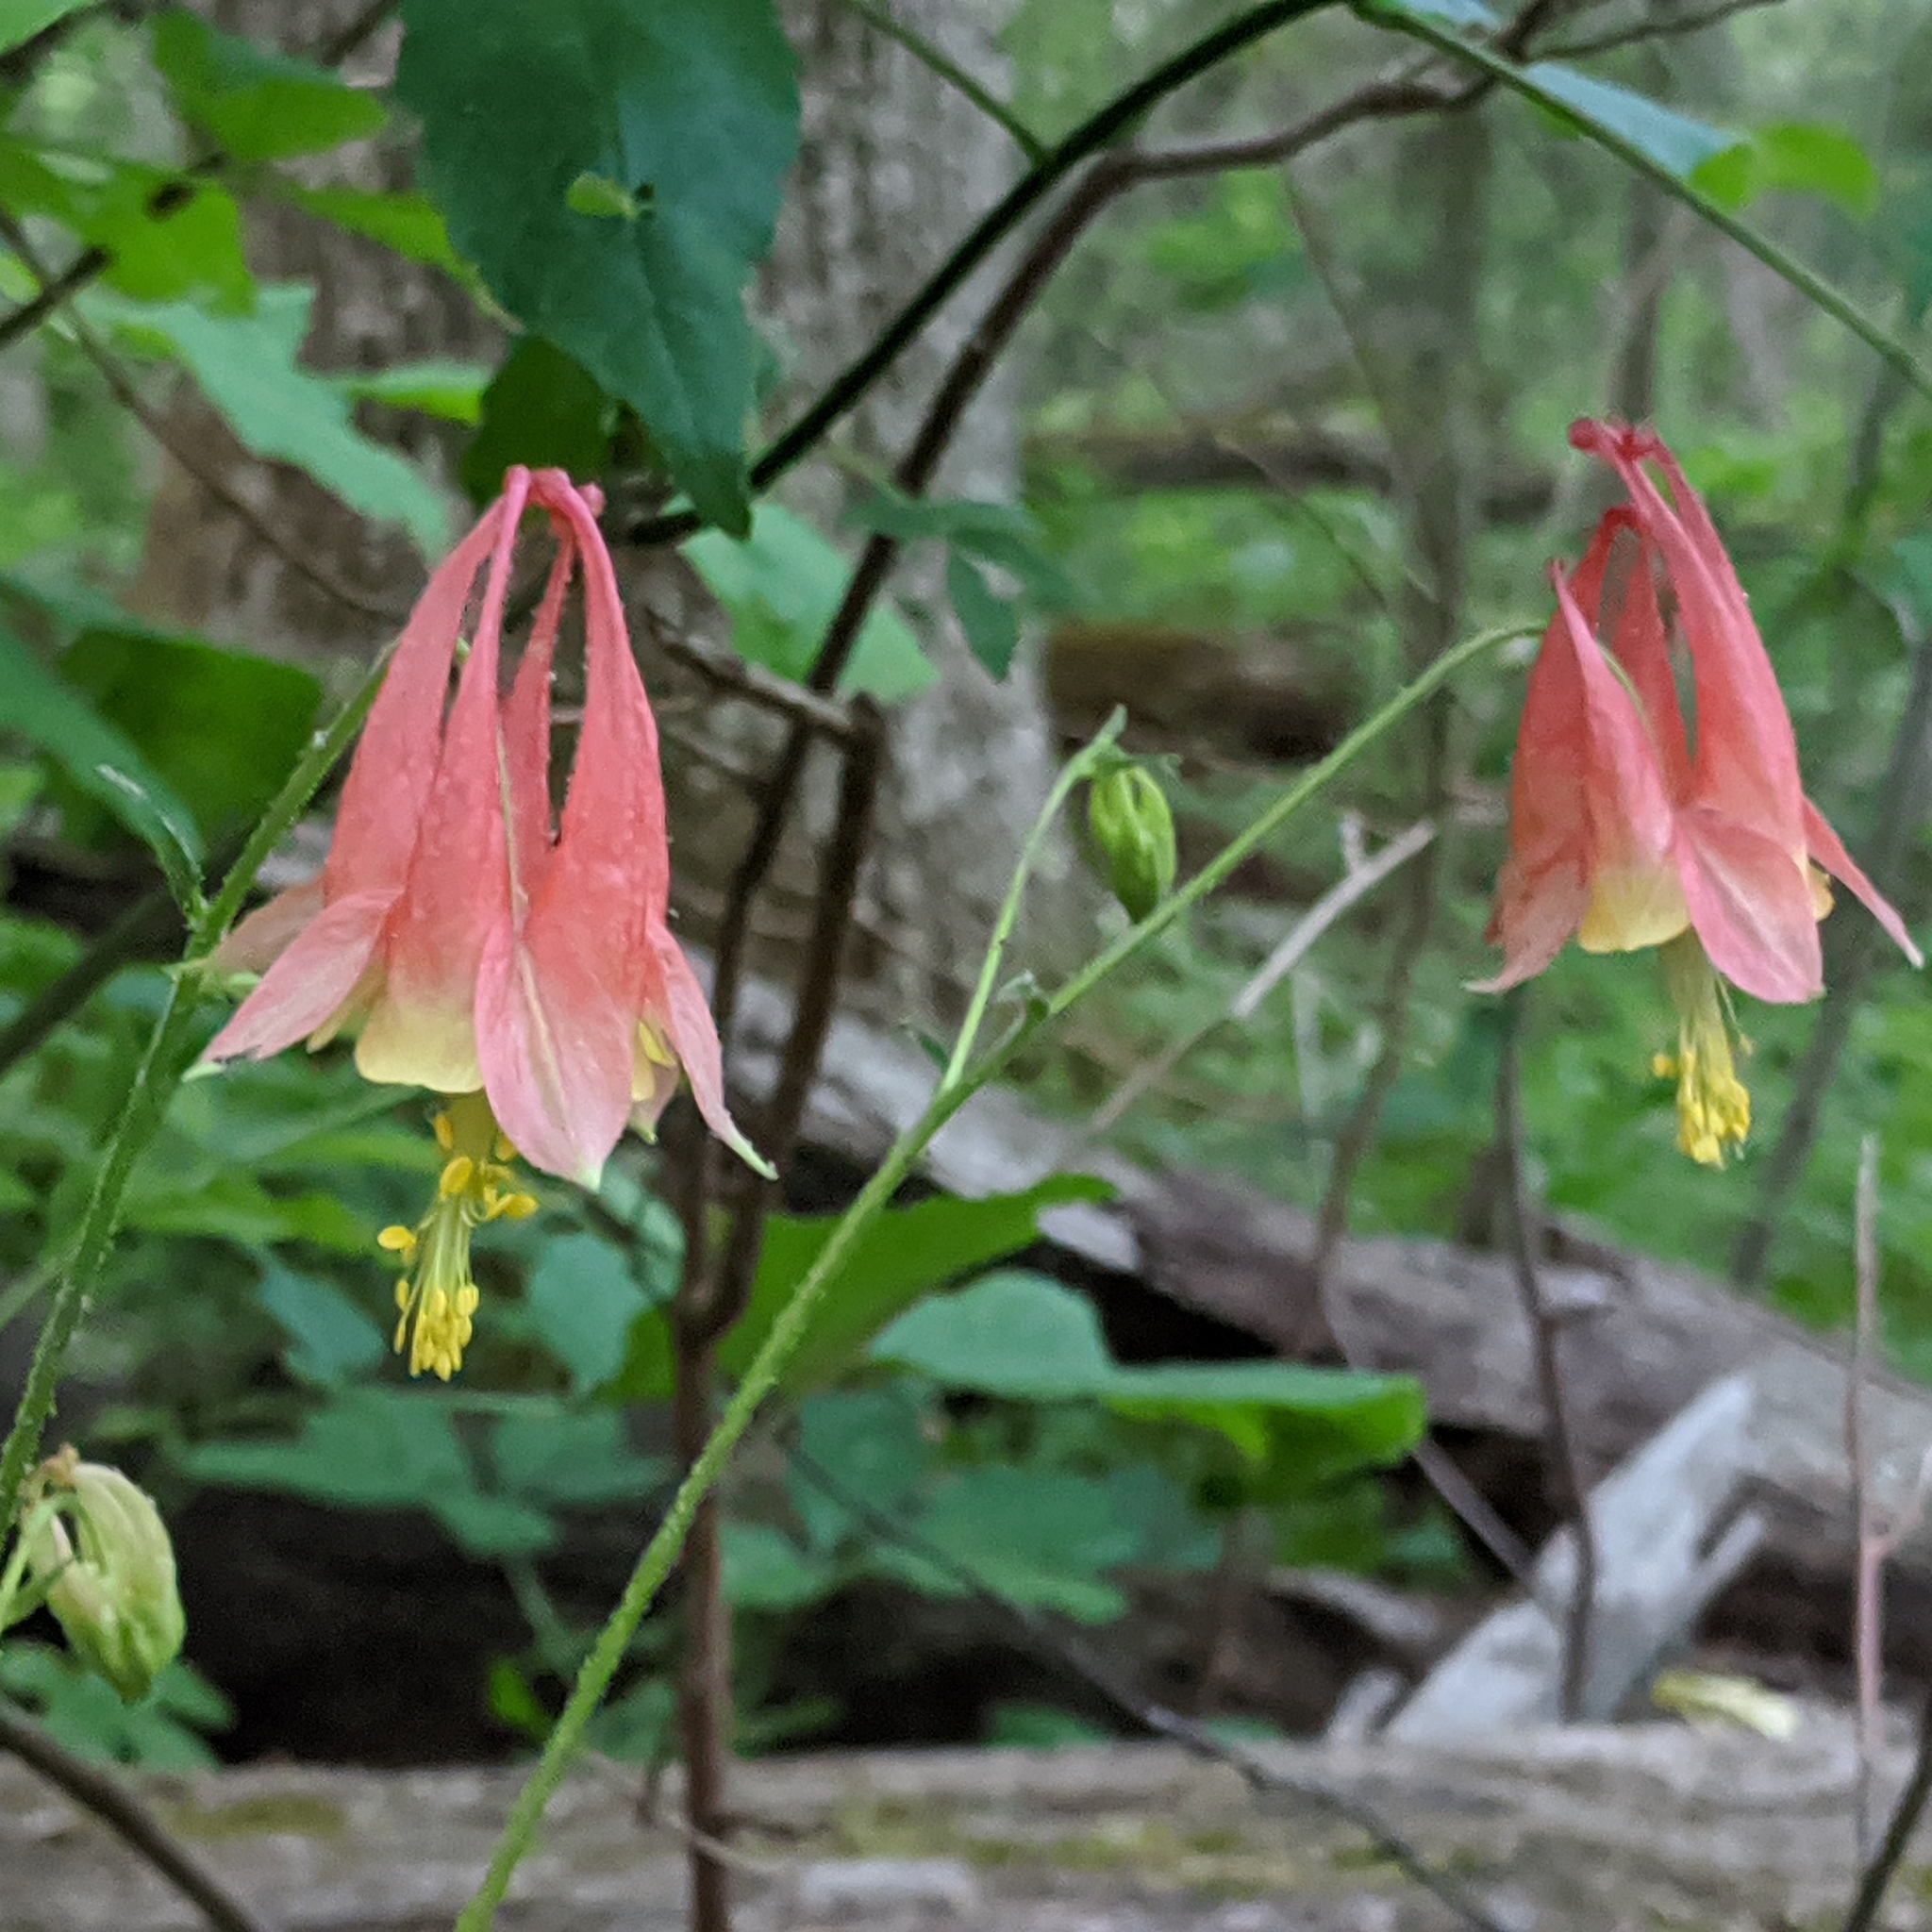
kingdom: Plantae
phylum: Tracheophyta
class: Magnoliopsida
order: Ranunculales
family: Ranunculaceae
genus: Aquilegia
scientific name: Aquilegia canadensis
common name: American columbine
